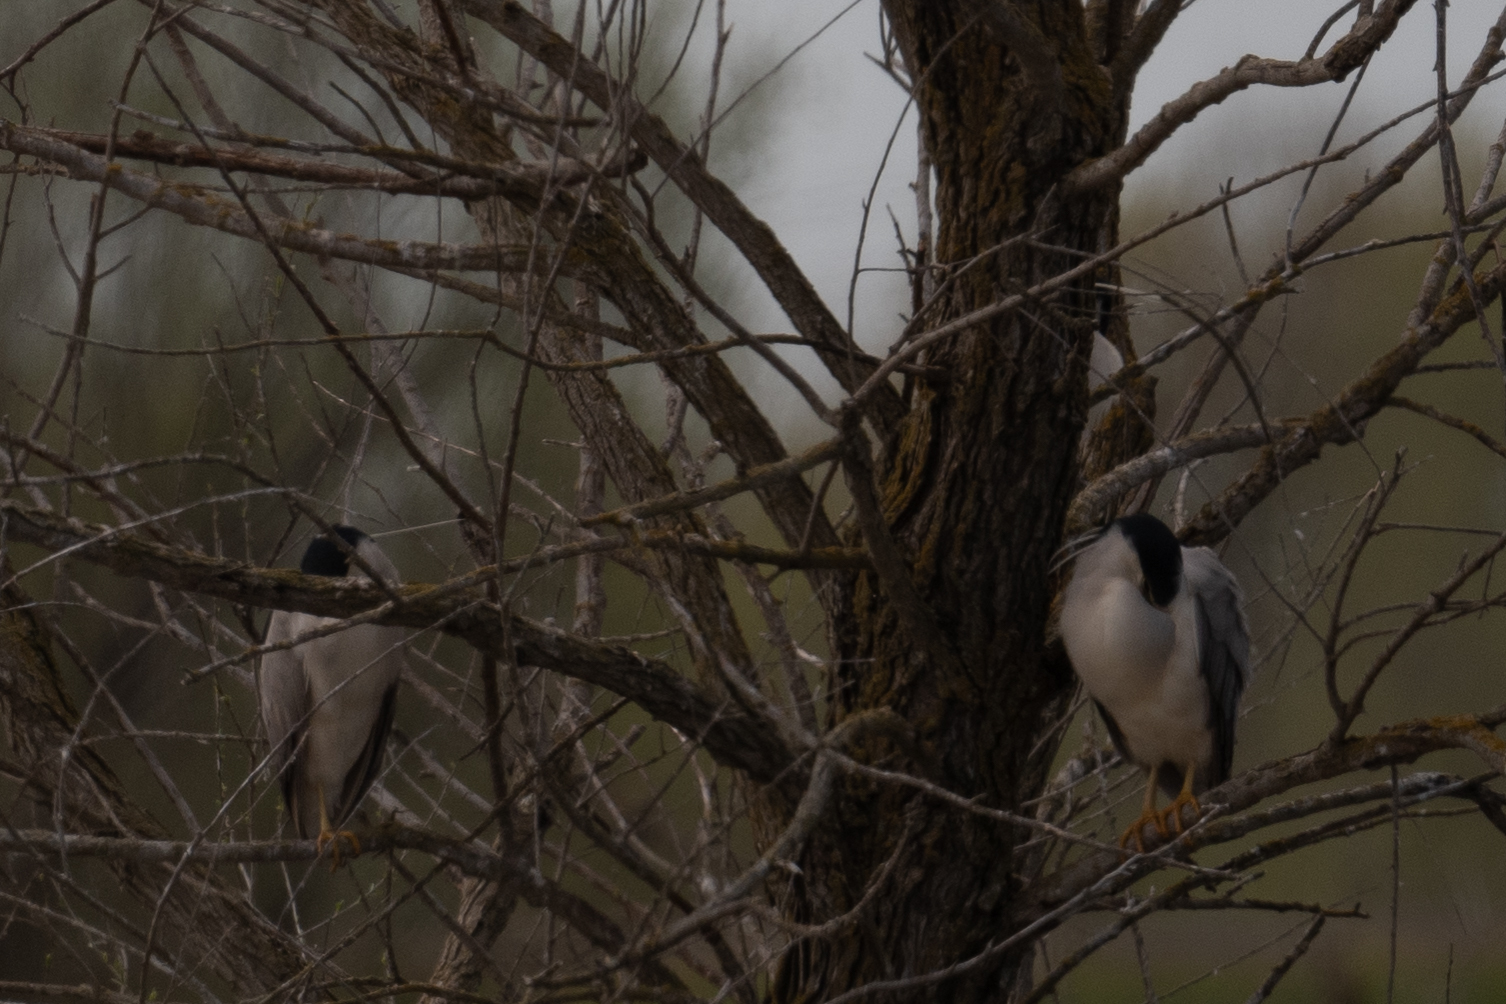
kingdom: Animalia
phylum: Chordata
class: Aves
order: Pelecaniformes
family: Ardeidae
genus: Nycticorax
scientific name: Nycticorax nycticorax
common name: Black-crowned night heron
